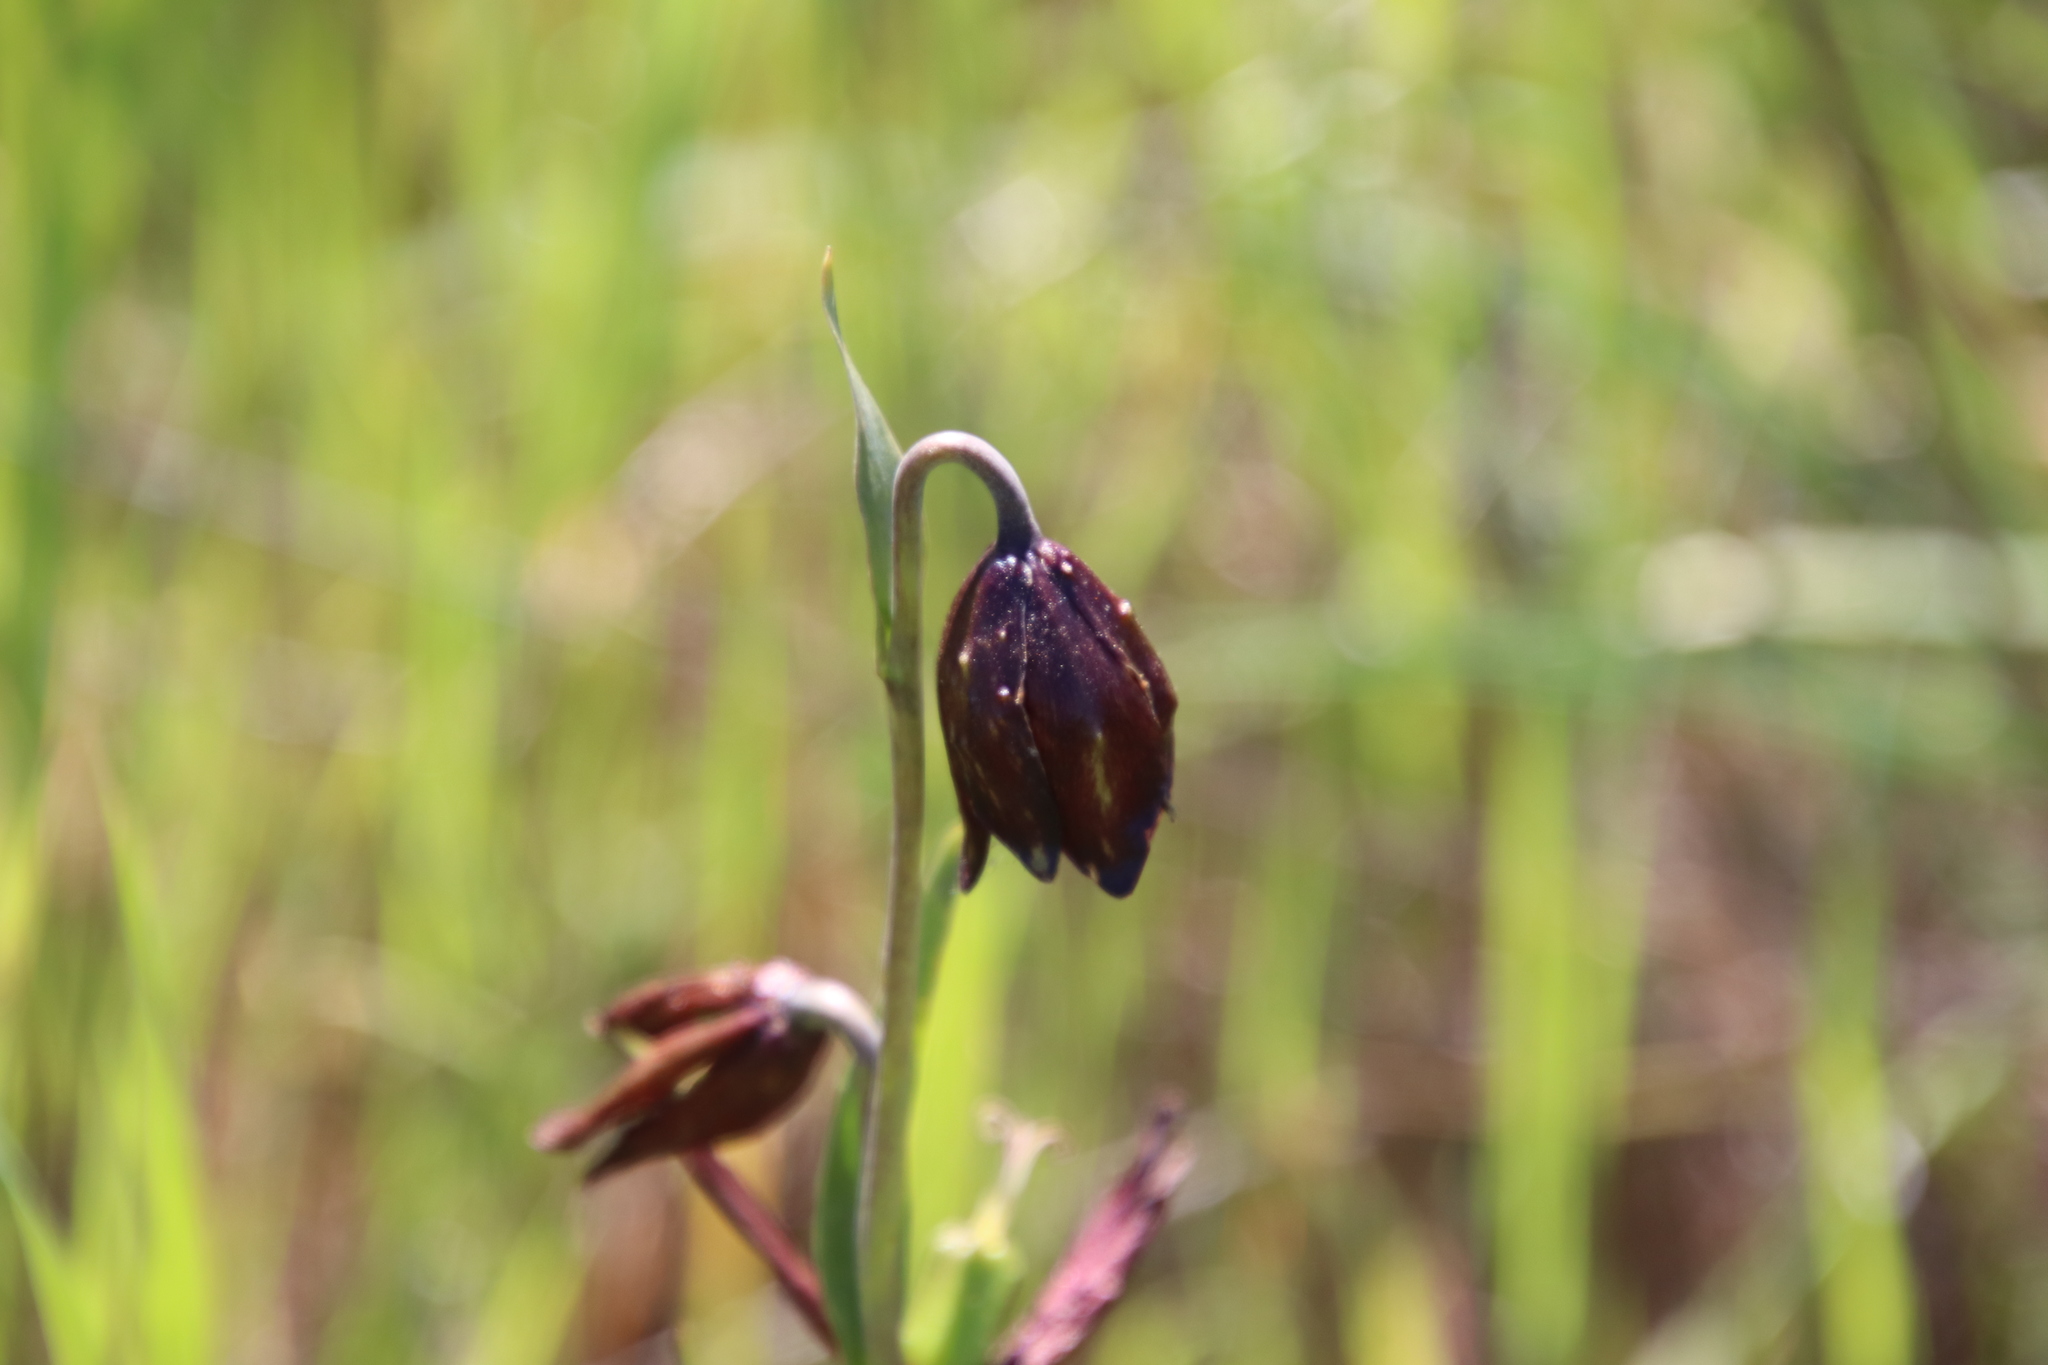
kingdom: Plantae
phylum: Tracheophyta
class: Liliopsida
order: Liliales
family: Liliaceae
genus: Fritillaria
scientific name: Fritillaria biflora
